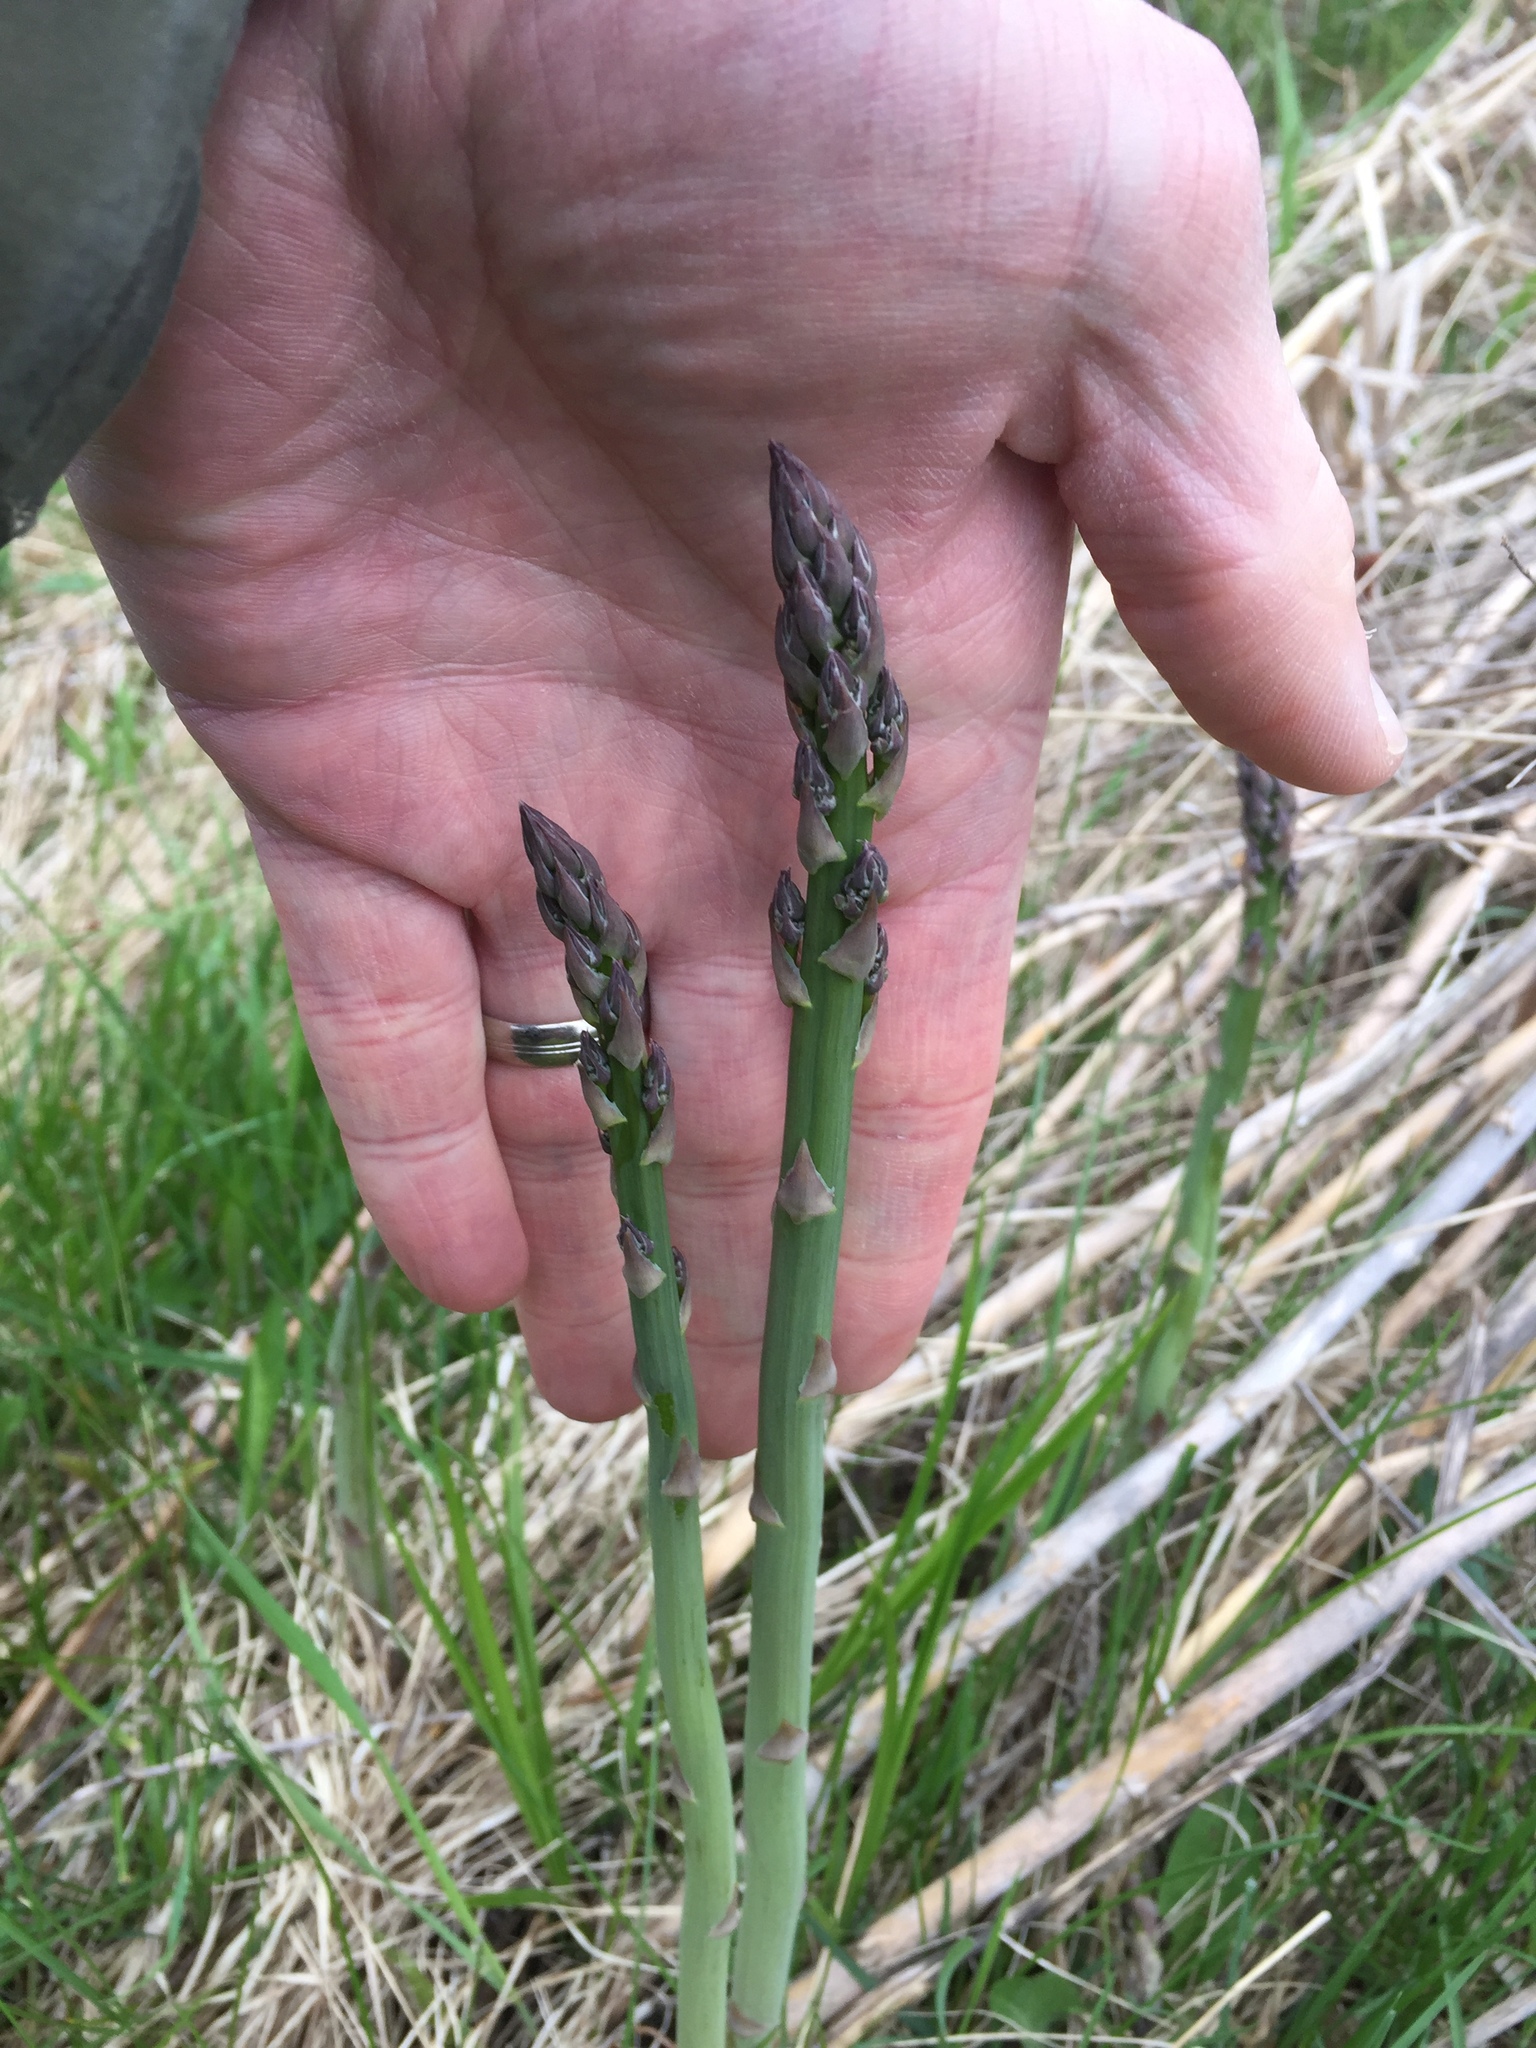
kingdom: Plantae
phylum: Tracheophyta
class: Liliopsida
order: Asparagales
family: Asparagaceae
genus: Asparagus
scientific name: Asparagus officinalis
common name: Garden asparagus
